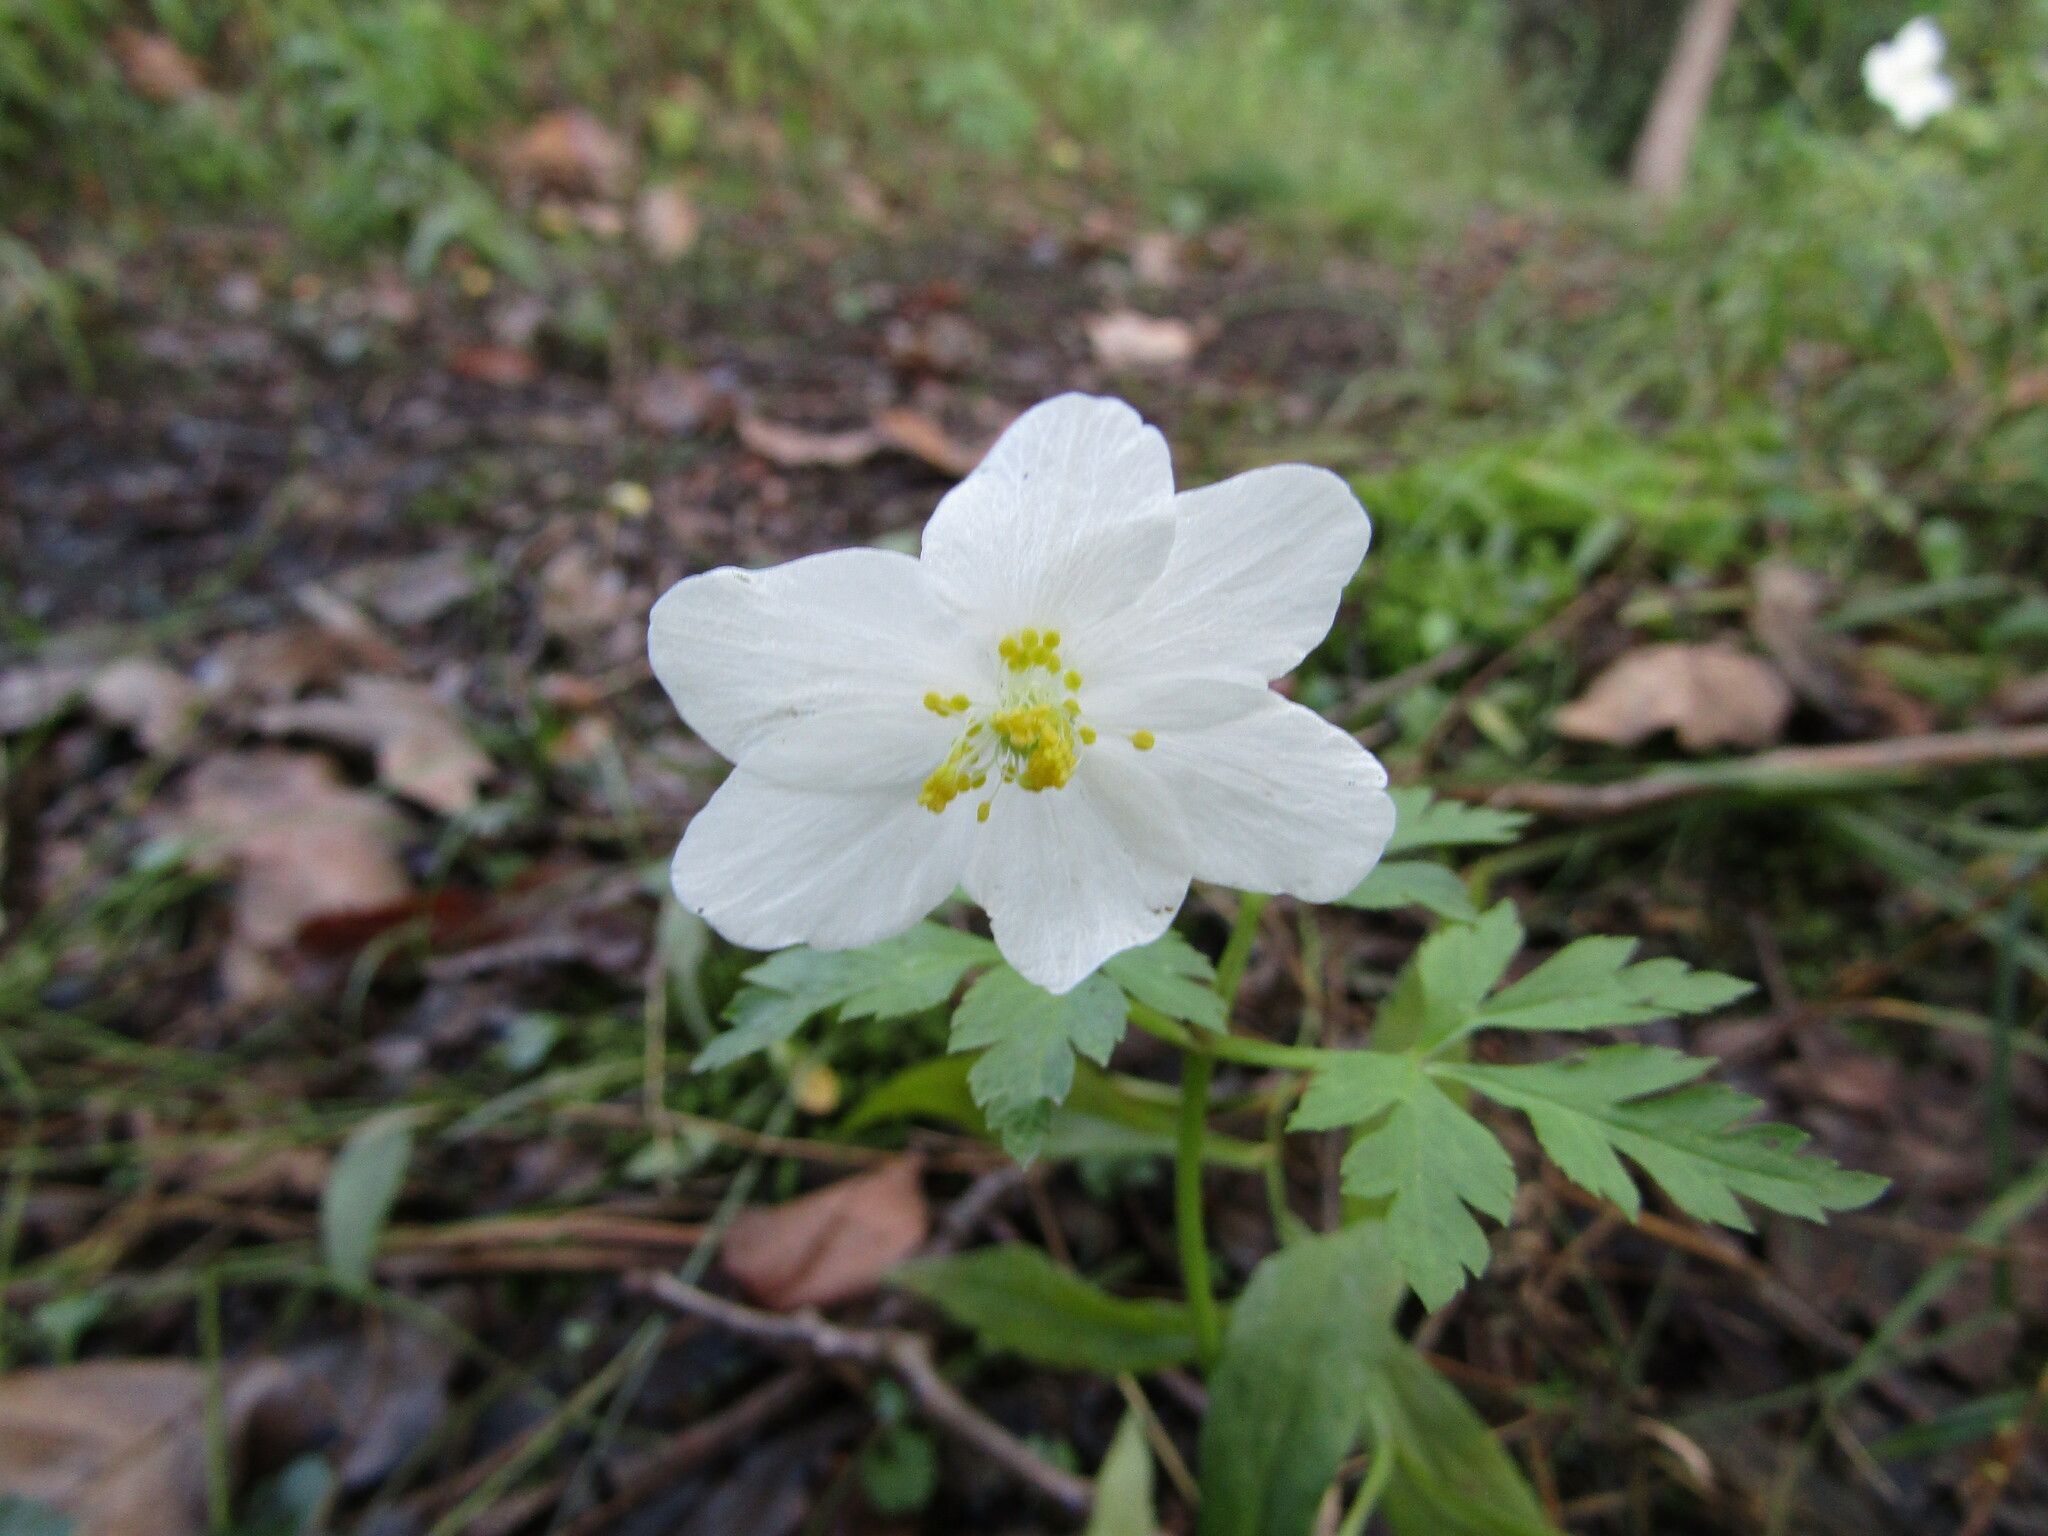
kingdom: Plantae
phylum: Tracheophyta
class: Magnoliopsida
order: Ranunculales
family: Ranunculaceae
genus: Anemone
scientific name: Anemone nemorosa
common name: Wood anemone
